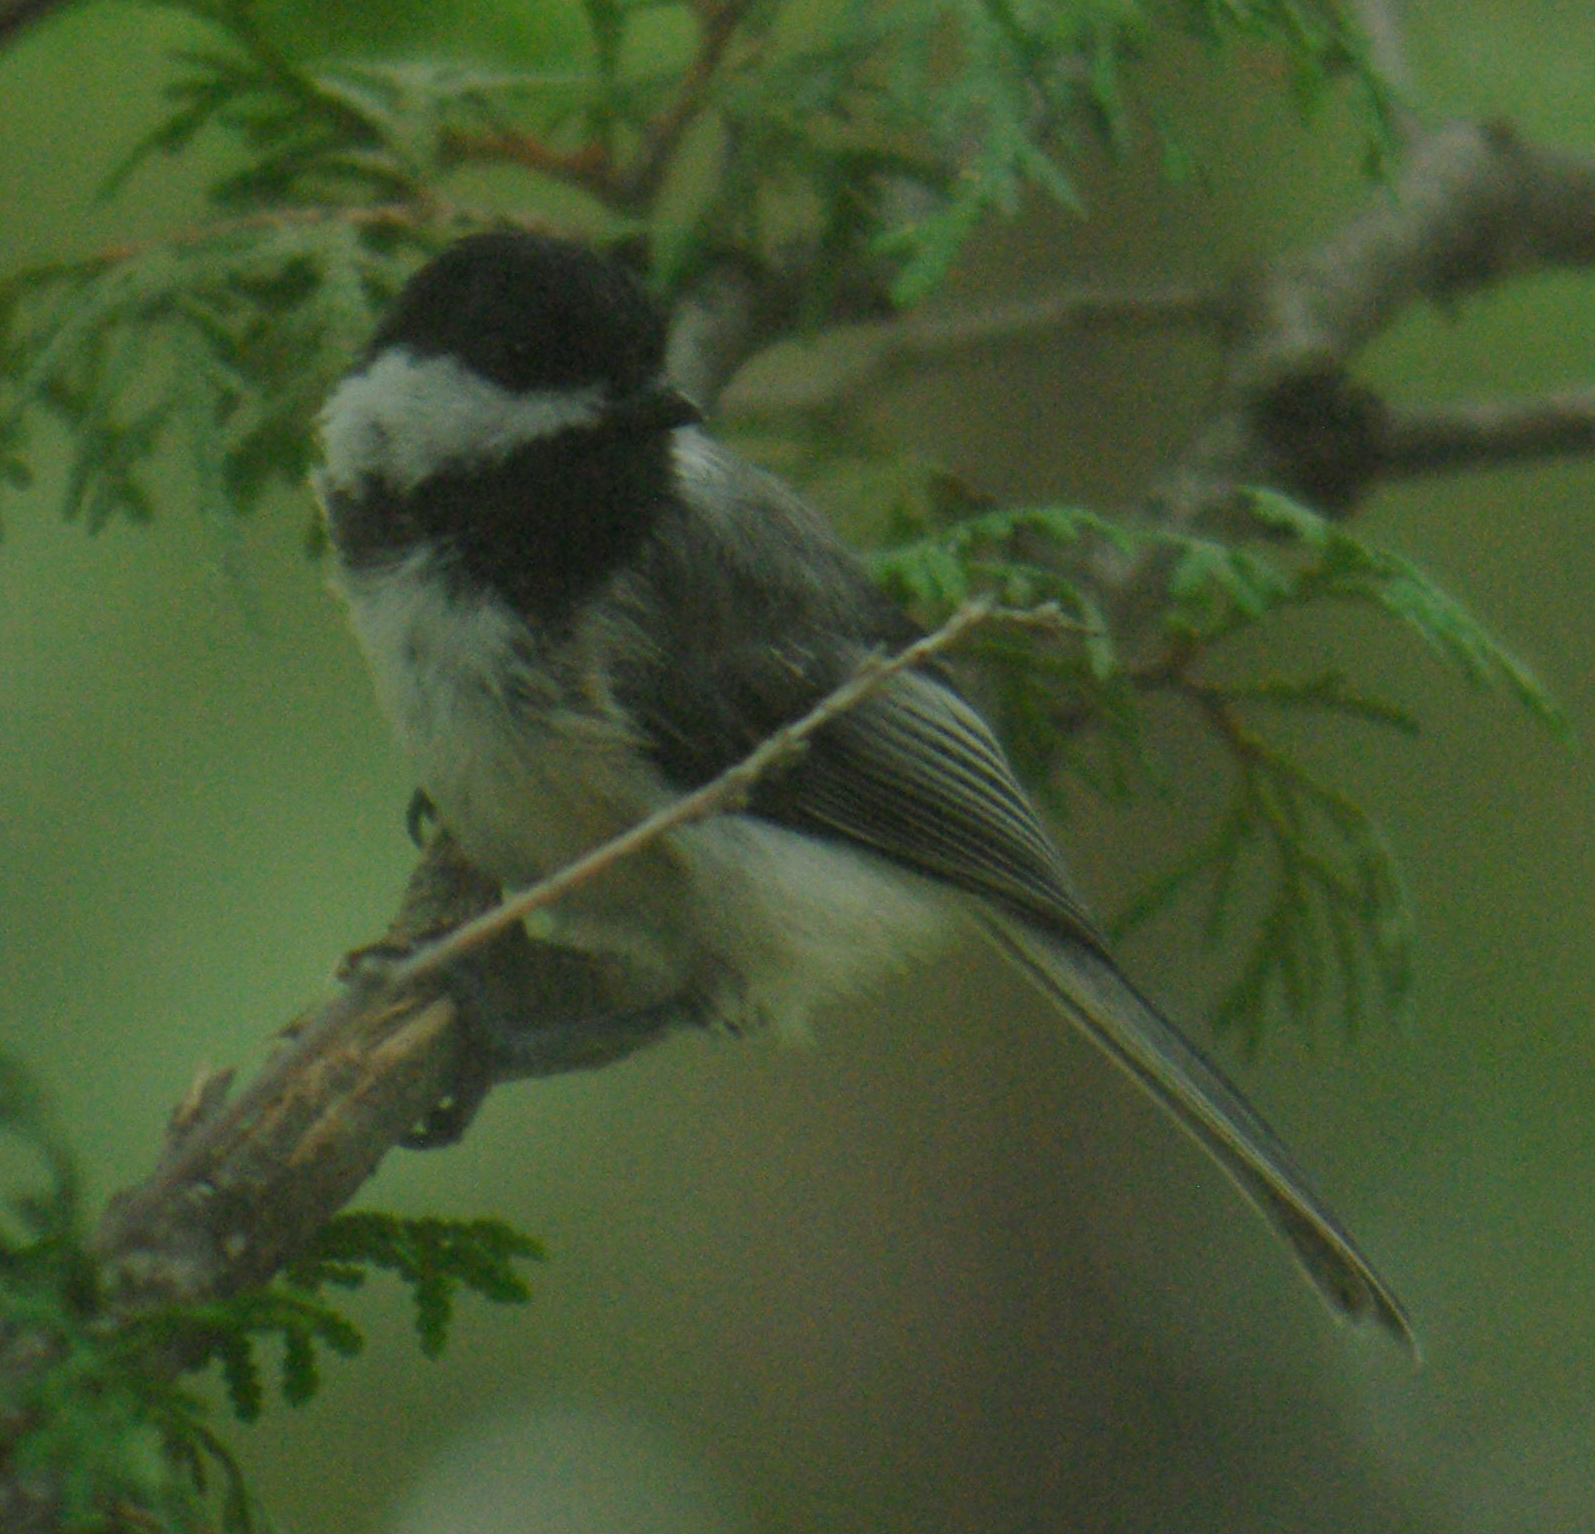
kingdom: Animalia
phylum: Chordata
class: Aves
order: Passeriformes
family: Paridae
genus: Poecile
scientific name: Poecile atricapillus
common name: Black-capped chickadee
